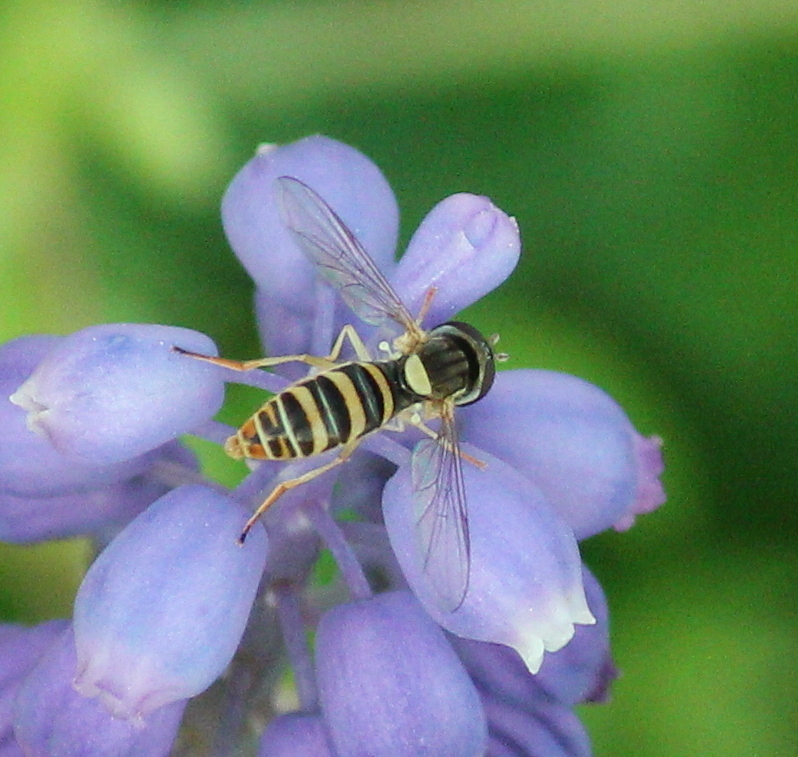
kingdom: Animalia
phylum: Arthropoda
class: Insecta
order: Diptera
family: Syrphidae
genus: Sphaerophoria
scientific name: Sphaerophoria contigua
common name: Tufted globetail
